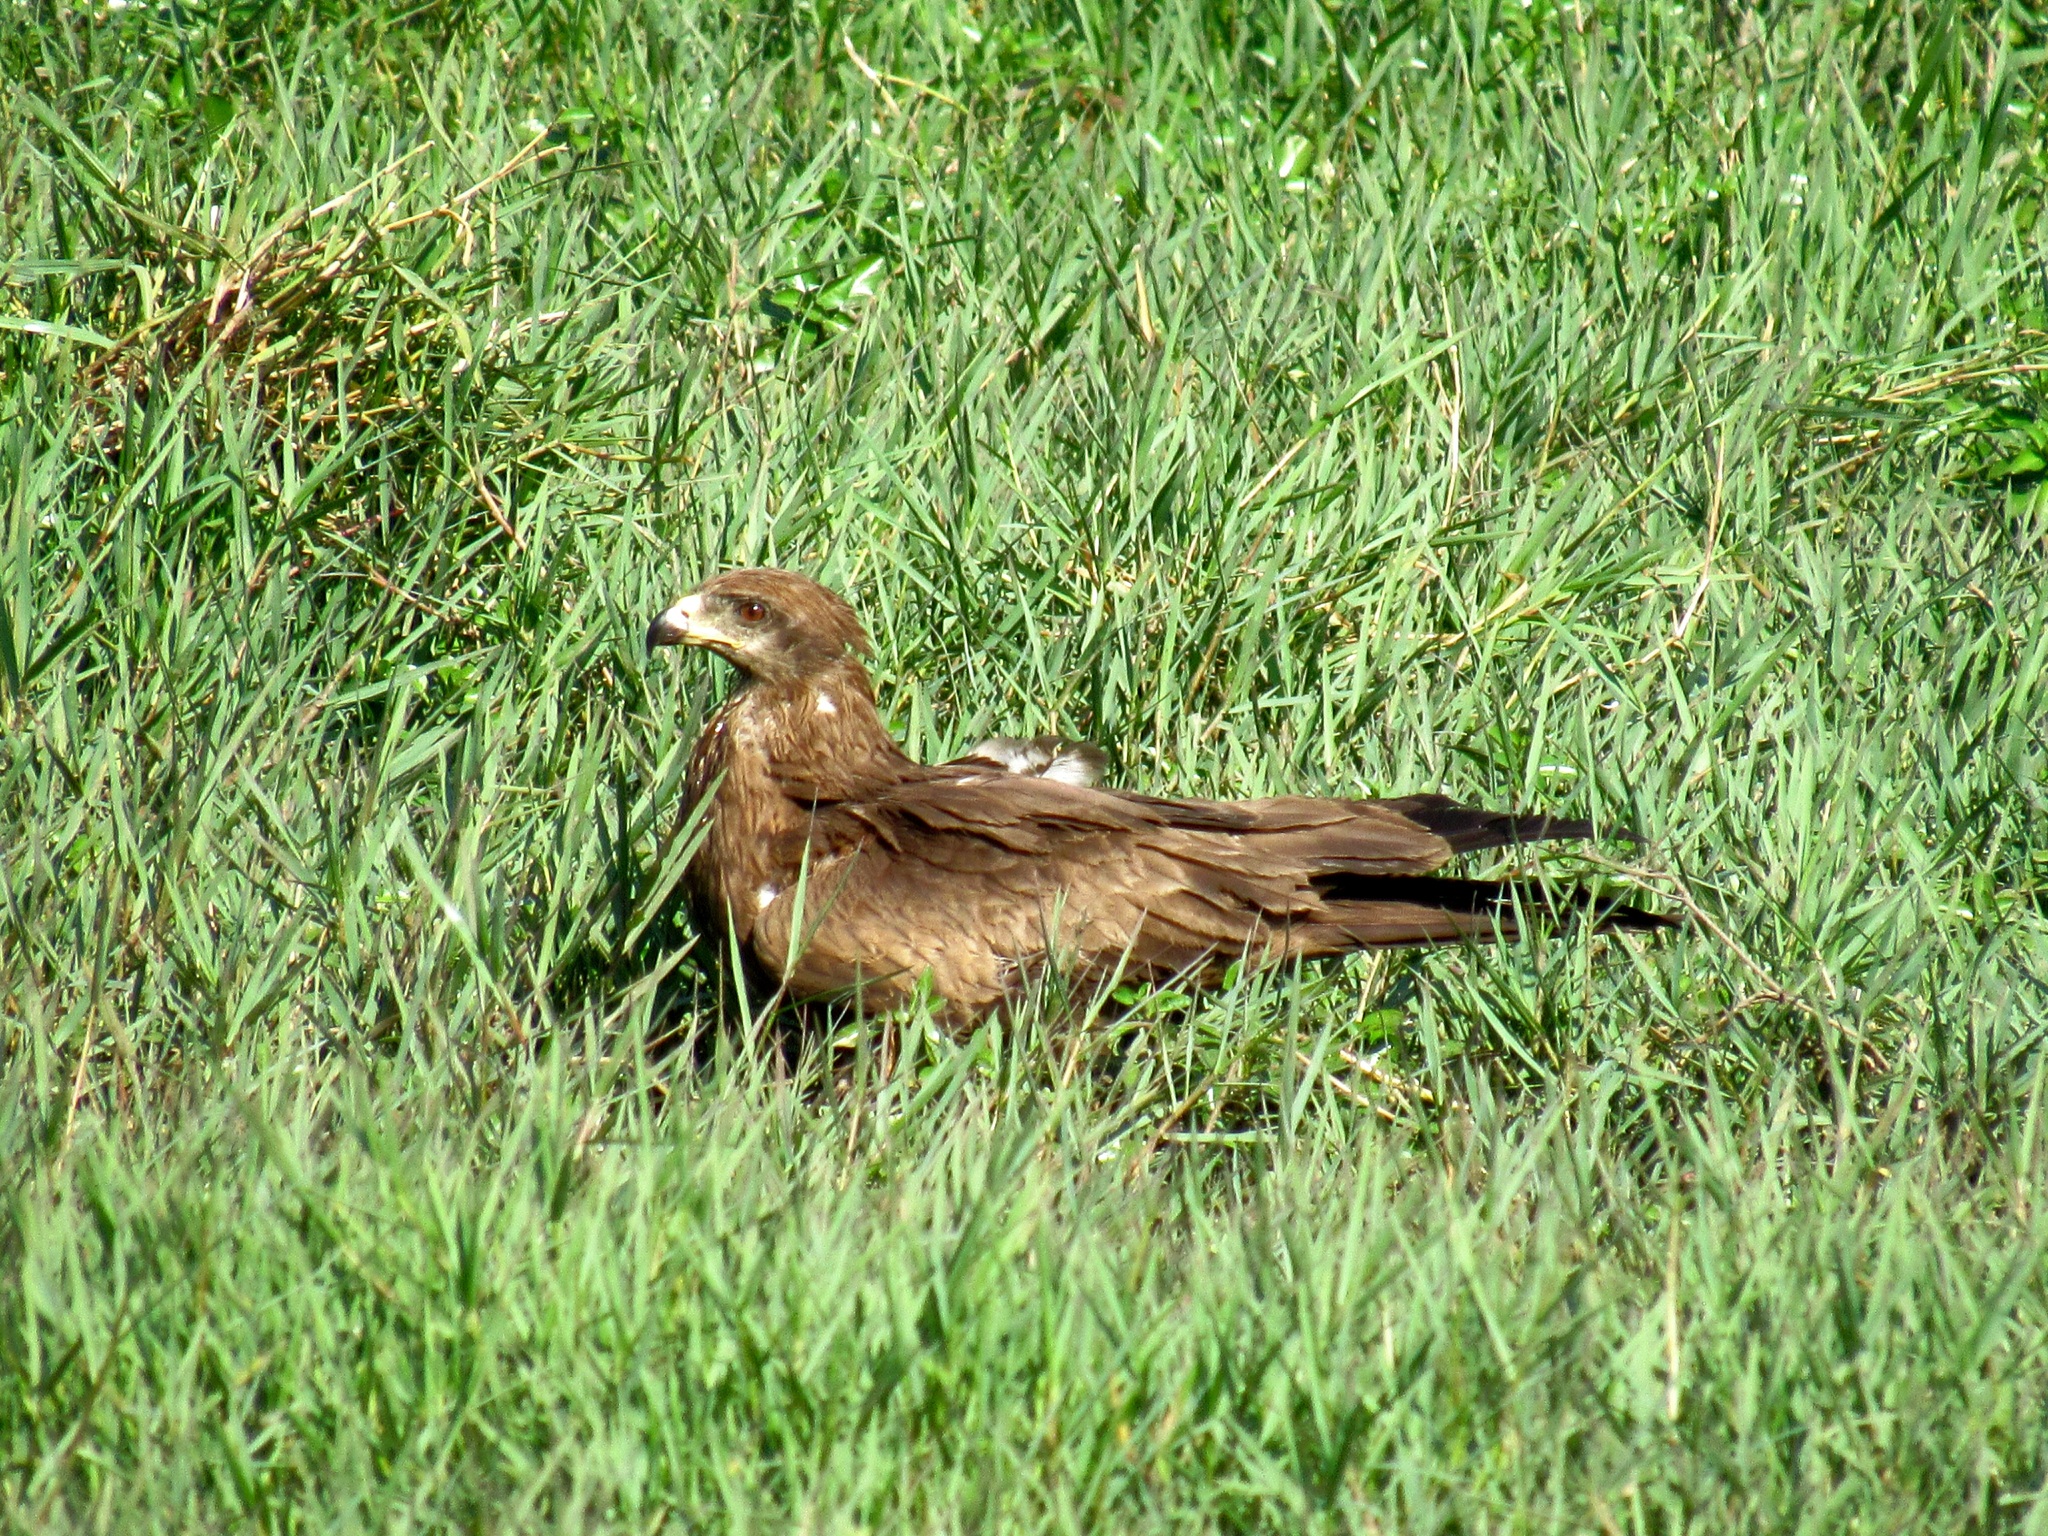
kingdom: Animalia
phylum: Chordata
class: Aves
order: Accipitriformes
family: Accipitridae
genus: Milvus
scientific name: Milvus migrans
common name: Black kite
